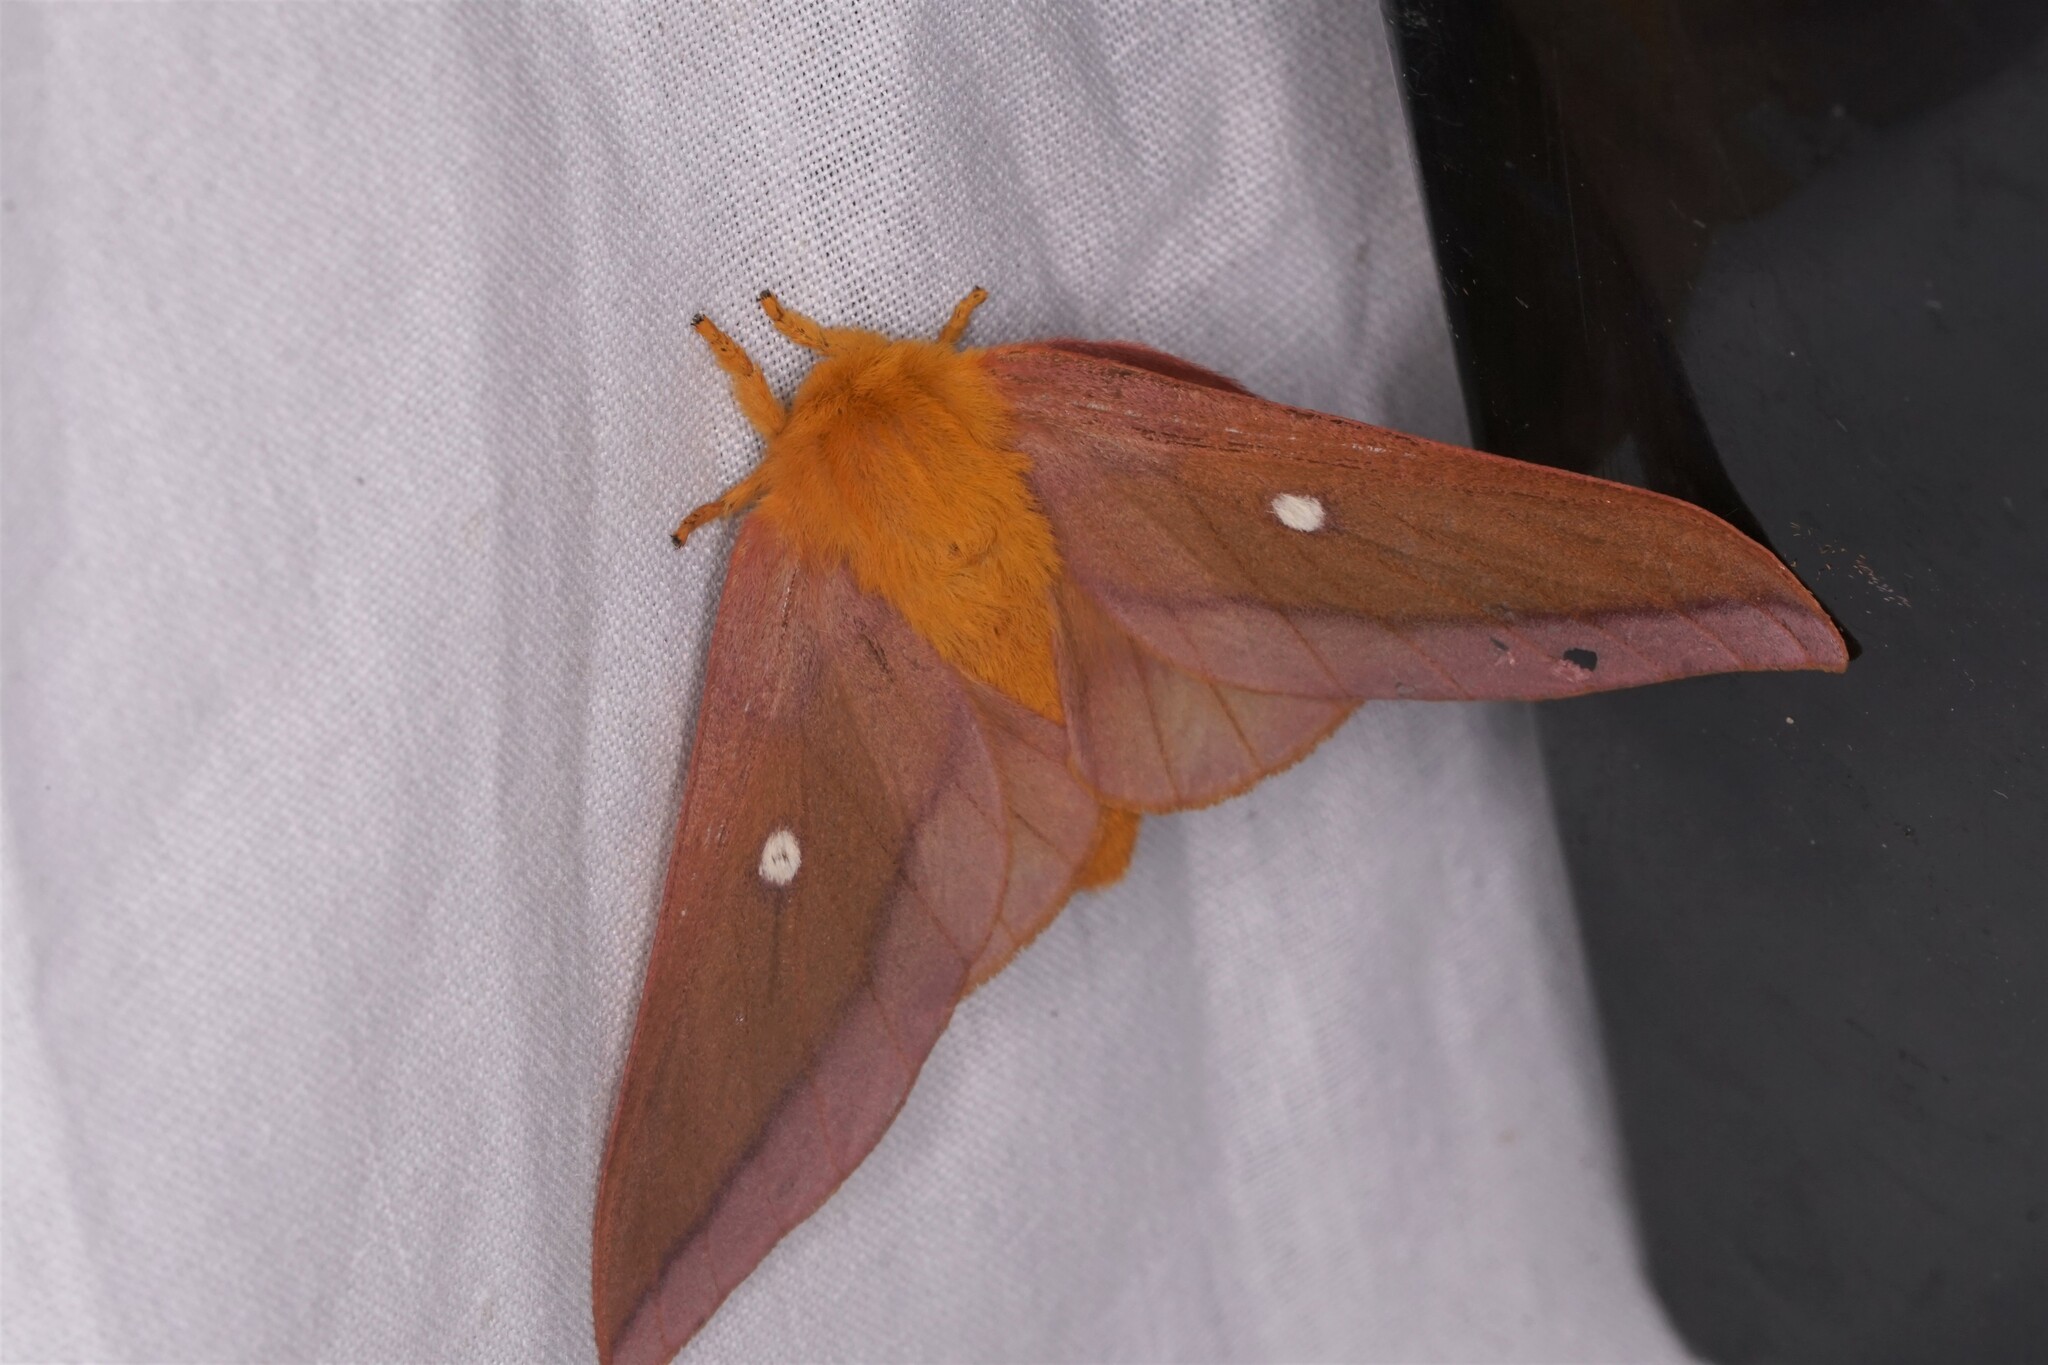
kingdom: Animalia
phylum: Arthropoda
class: Insecta
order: Lepidoptera
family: Saturniidae
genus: Anisota
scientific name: Anisota virginiensis
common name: Pink striped oakworm moth
